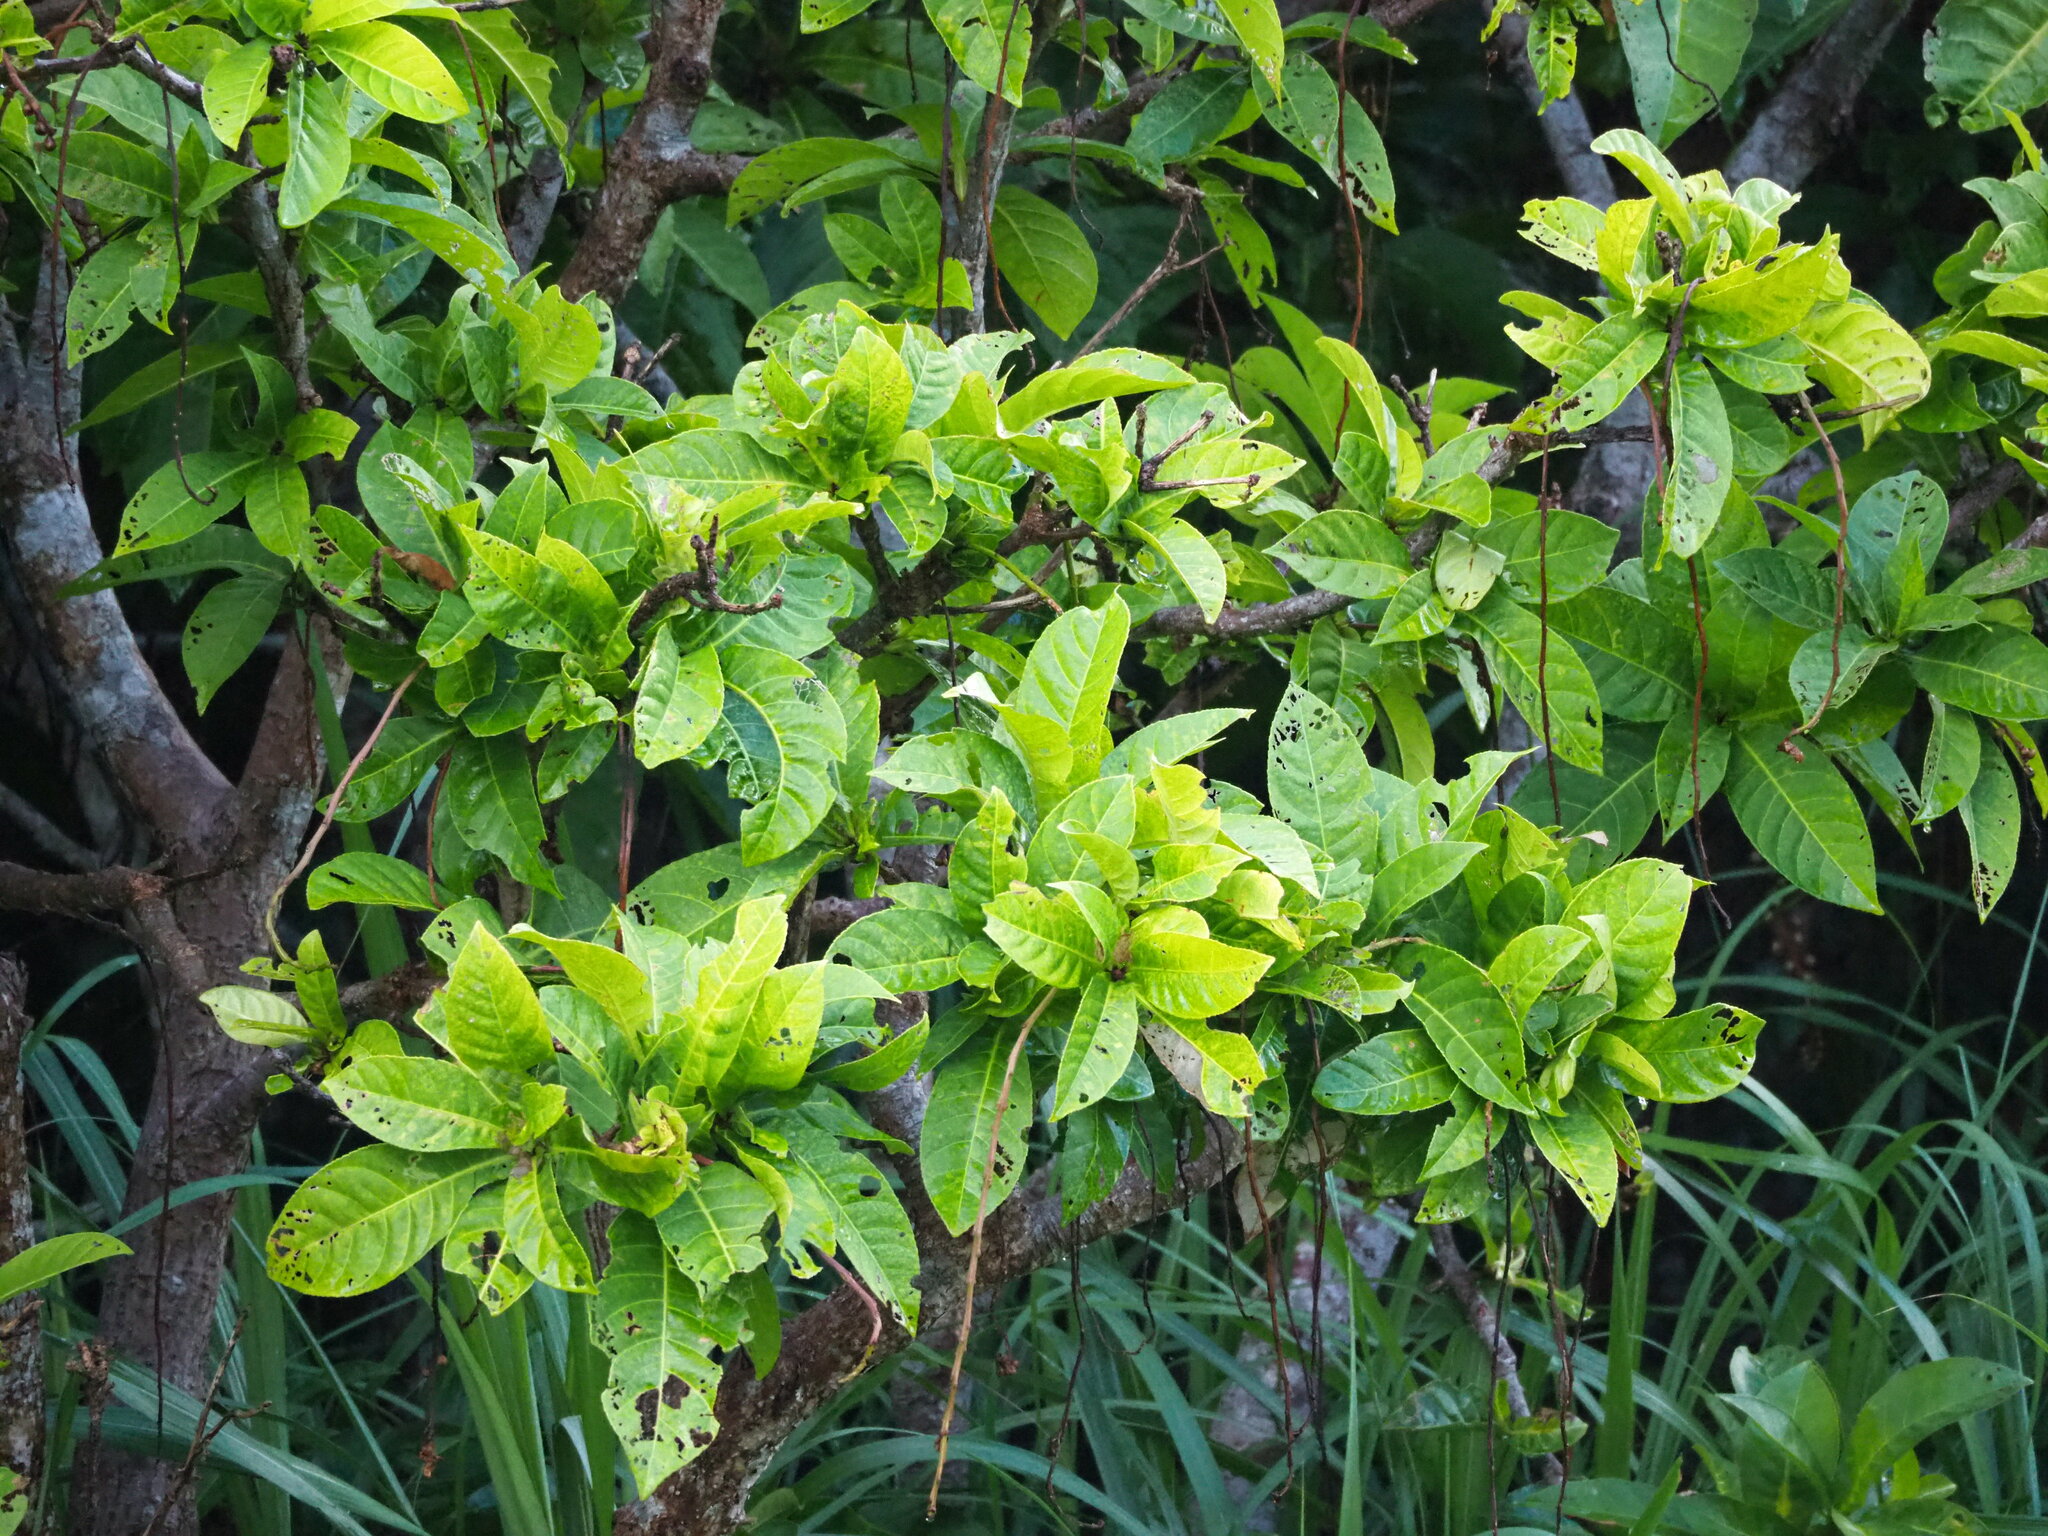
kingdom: Plantae
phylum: Tracheophyta
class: Magnoliopsida
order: Ericales
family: Lecythidaceae
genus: Barringtonia
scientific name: Barringtonia racemosa
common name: Brackwater mangrove
